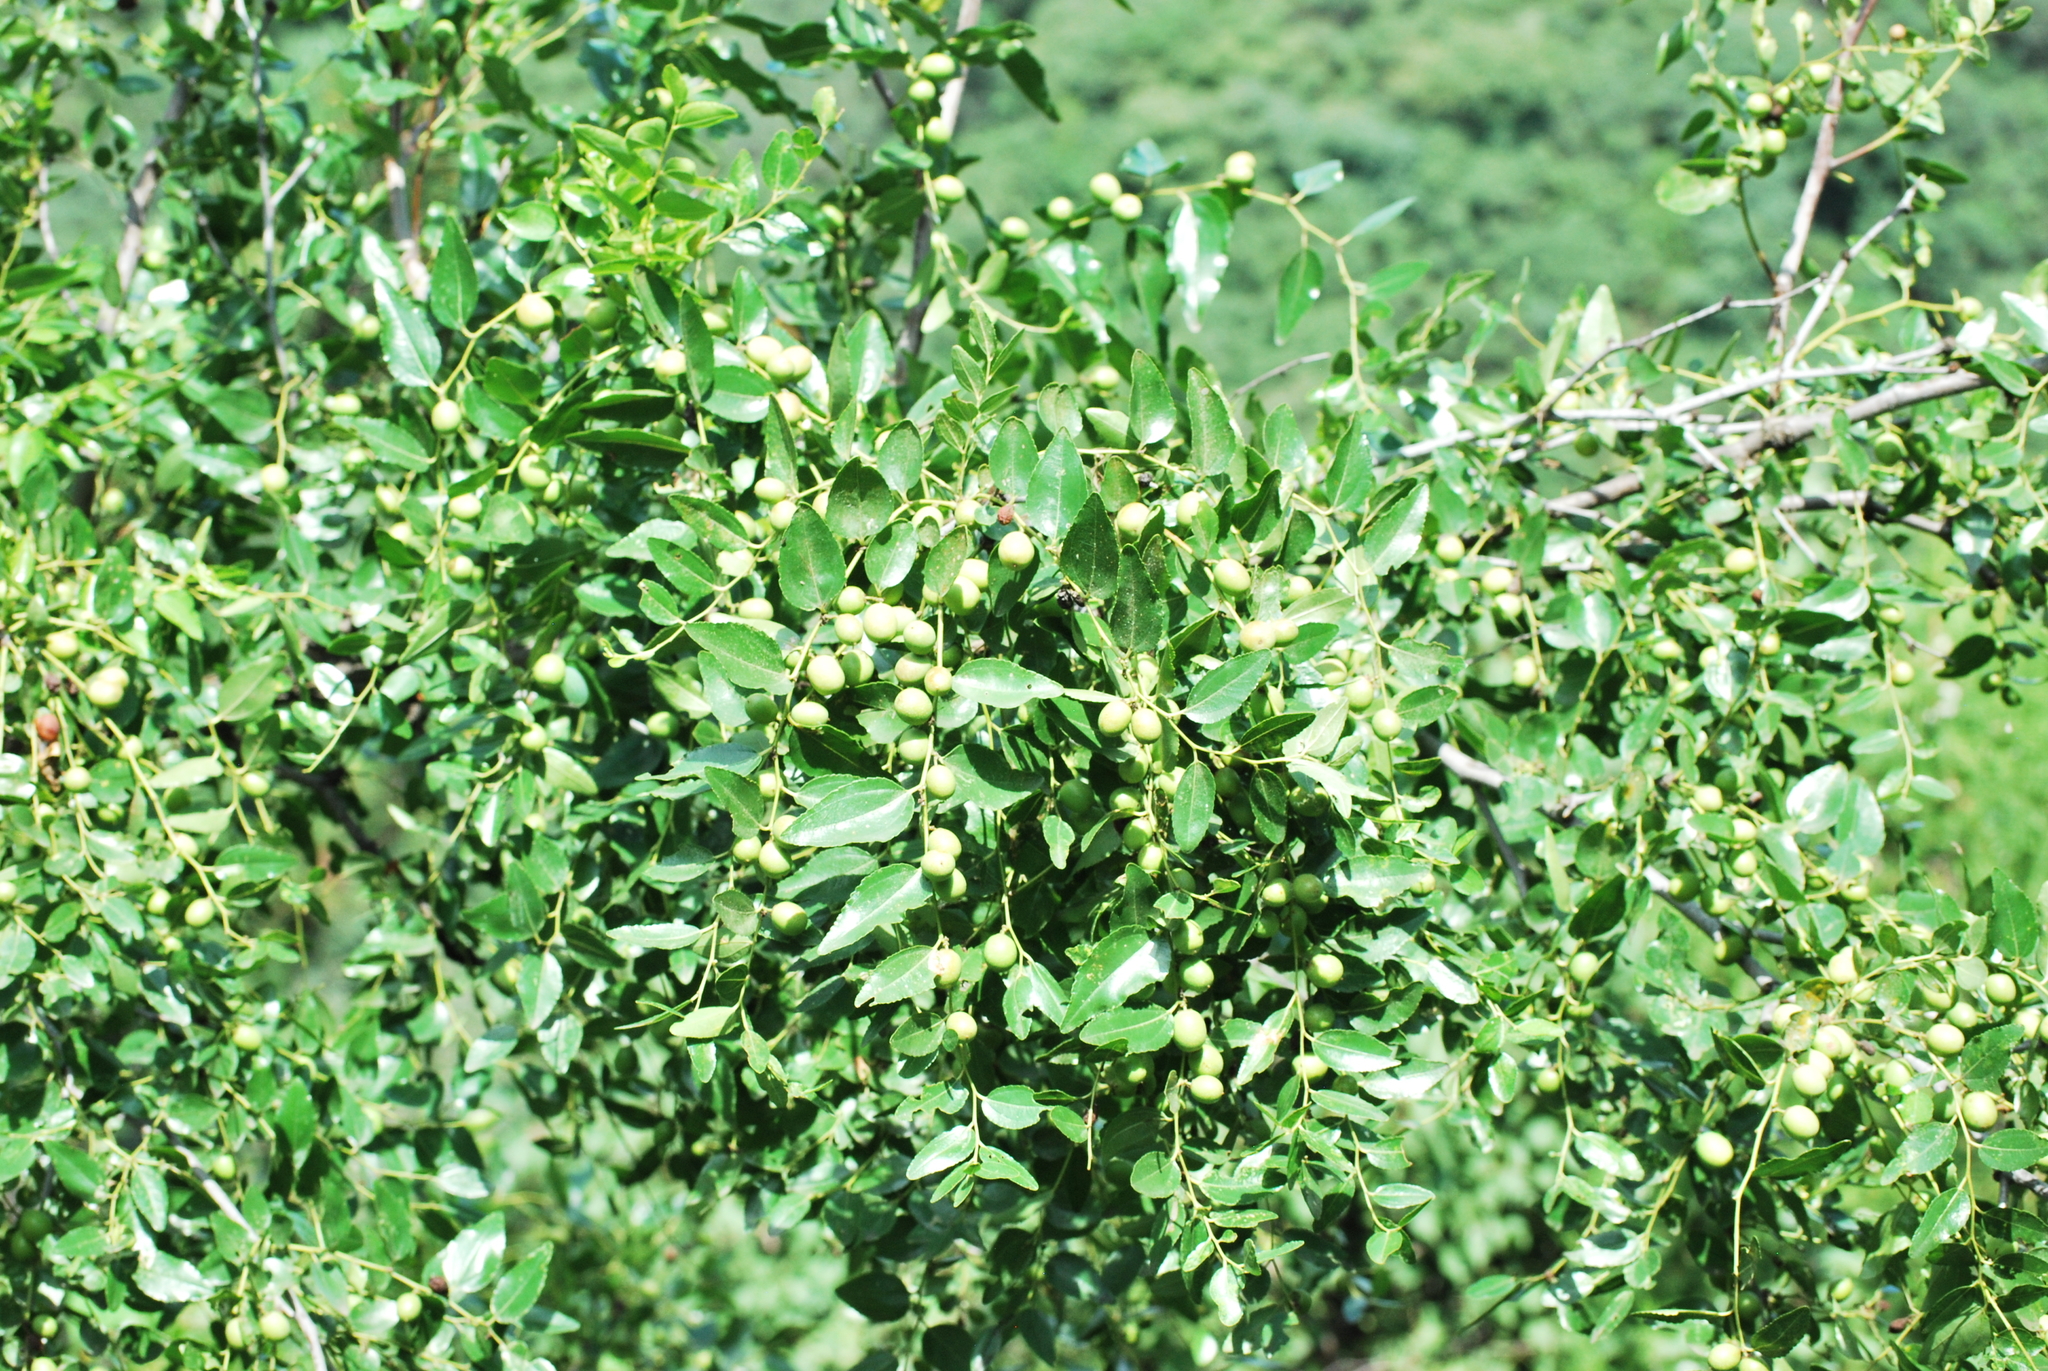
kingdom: Plantae
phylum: Tracheophyta
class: Magnoliopsida
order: Rosales
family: Rhamnaceae
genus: Ziziphus
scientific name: Ziziphus jujuba
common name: Jujube red date
